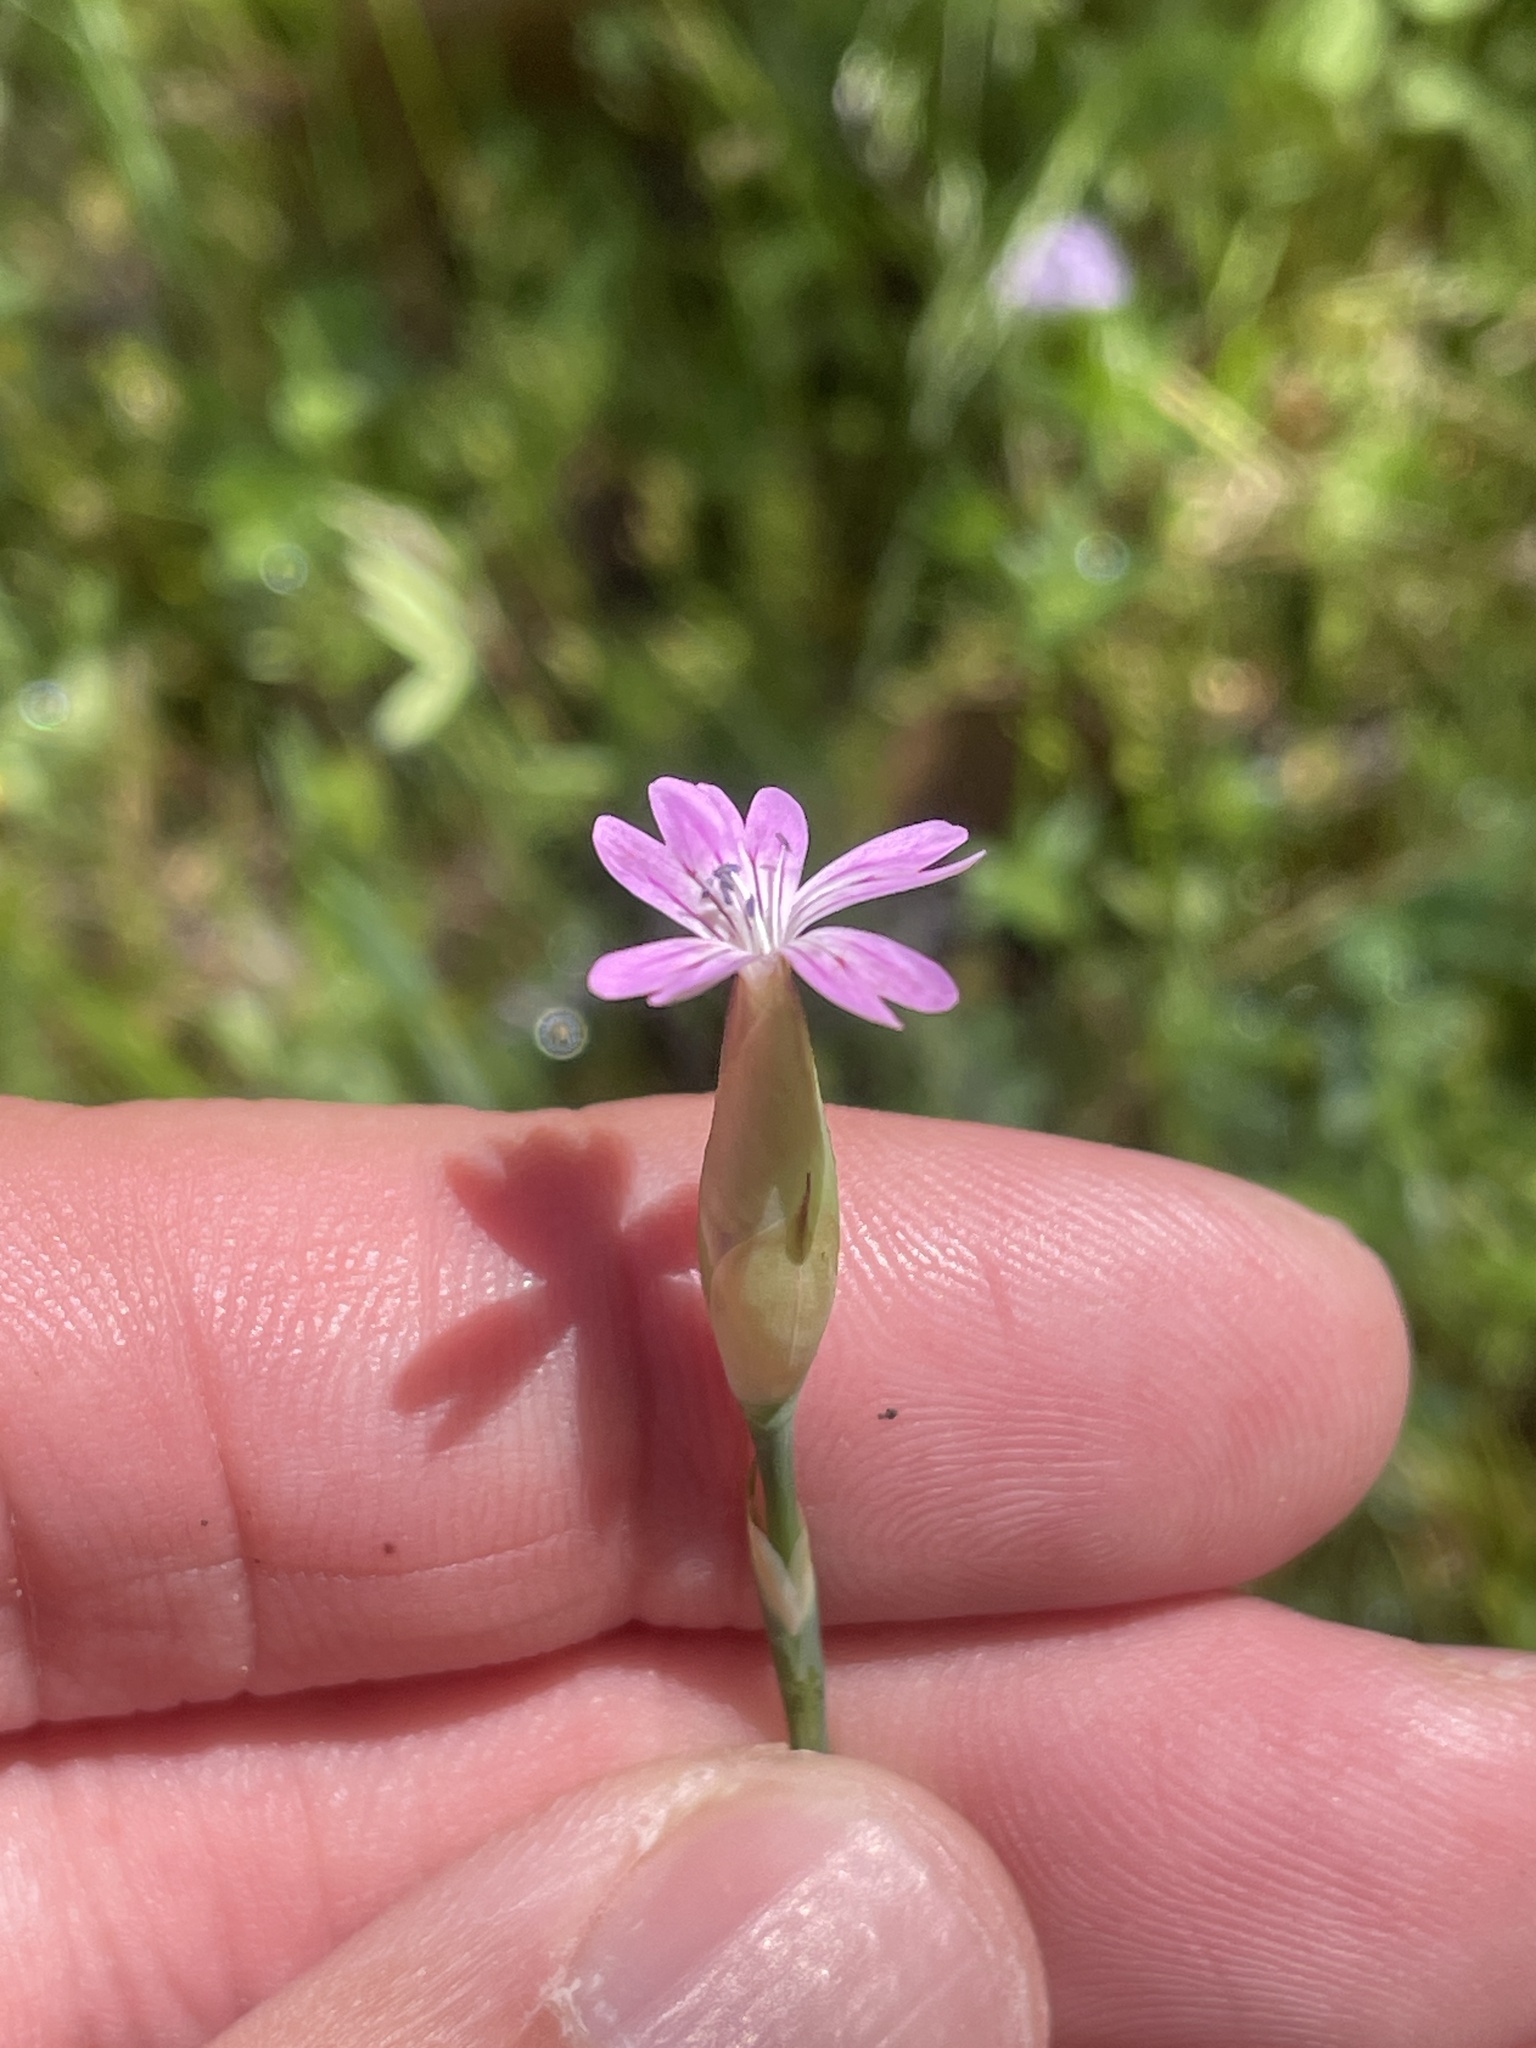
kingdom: Plantae
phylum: Tracheophyta
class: Magnoliopsida
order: Caryophyllales
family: Caryophyllaceae
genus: Petrorhagia
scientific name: Petrorhagia dubia
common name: Hairypink
